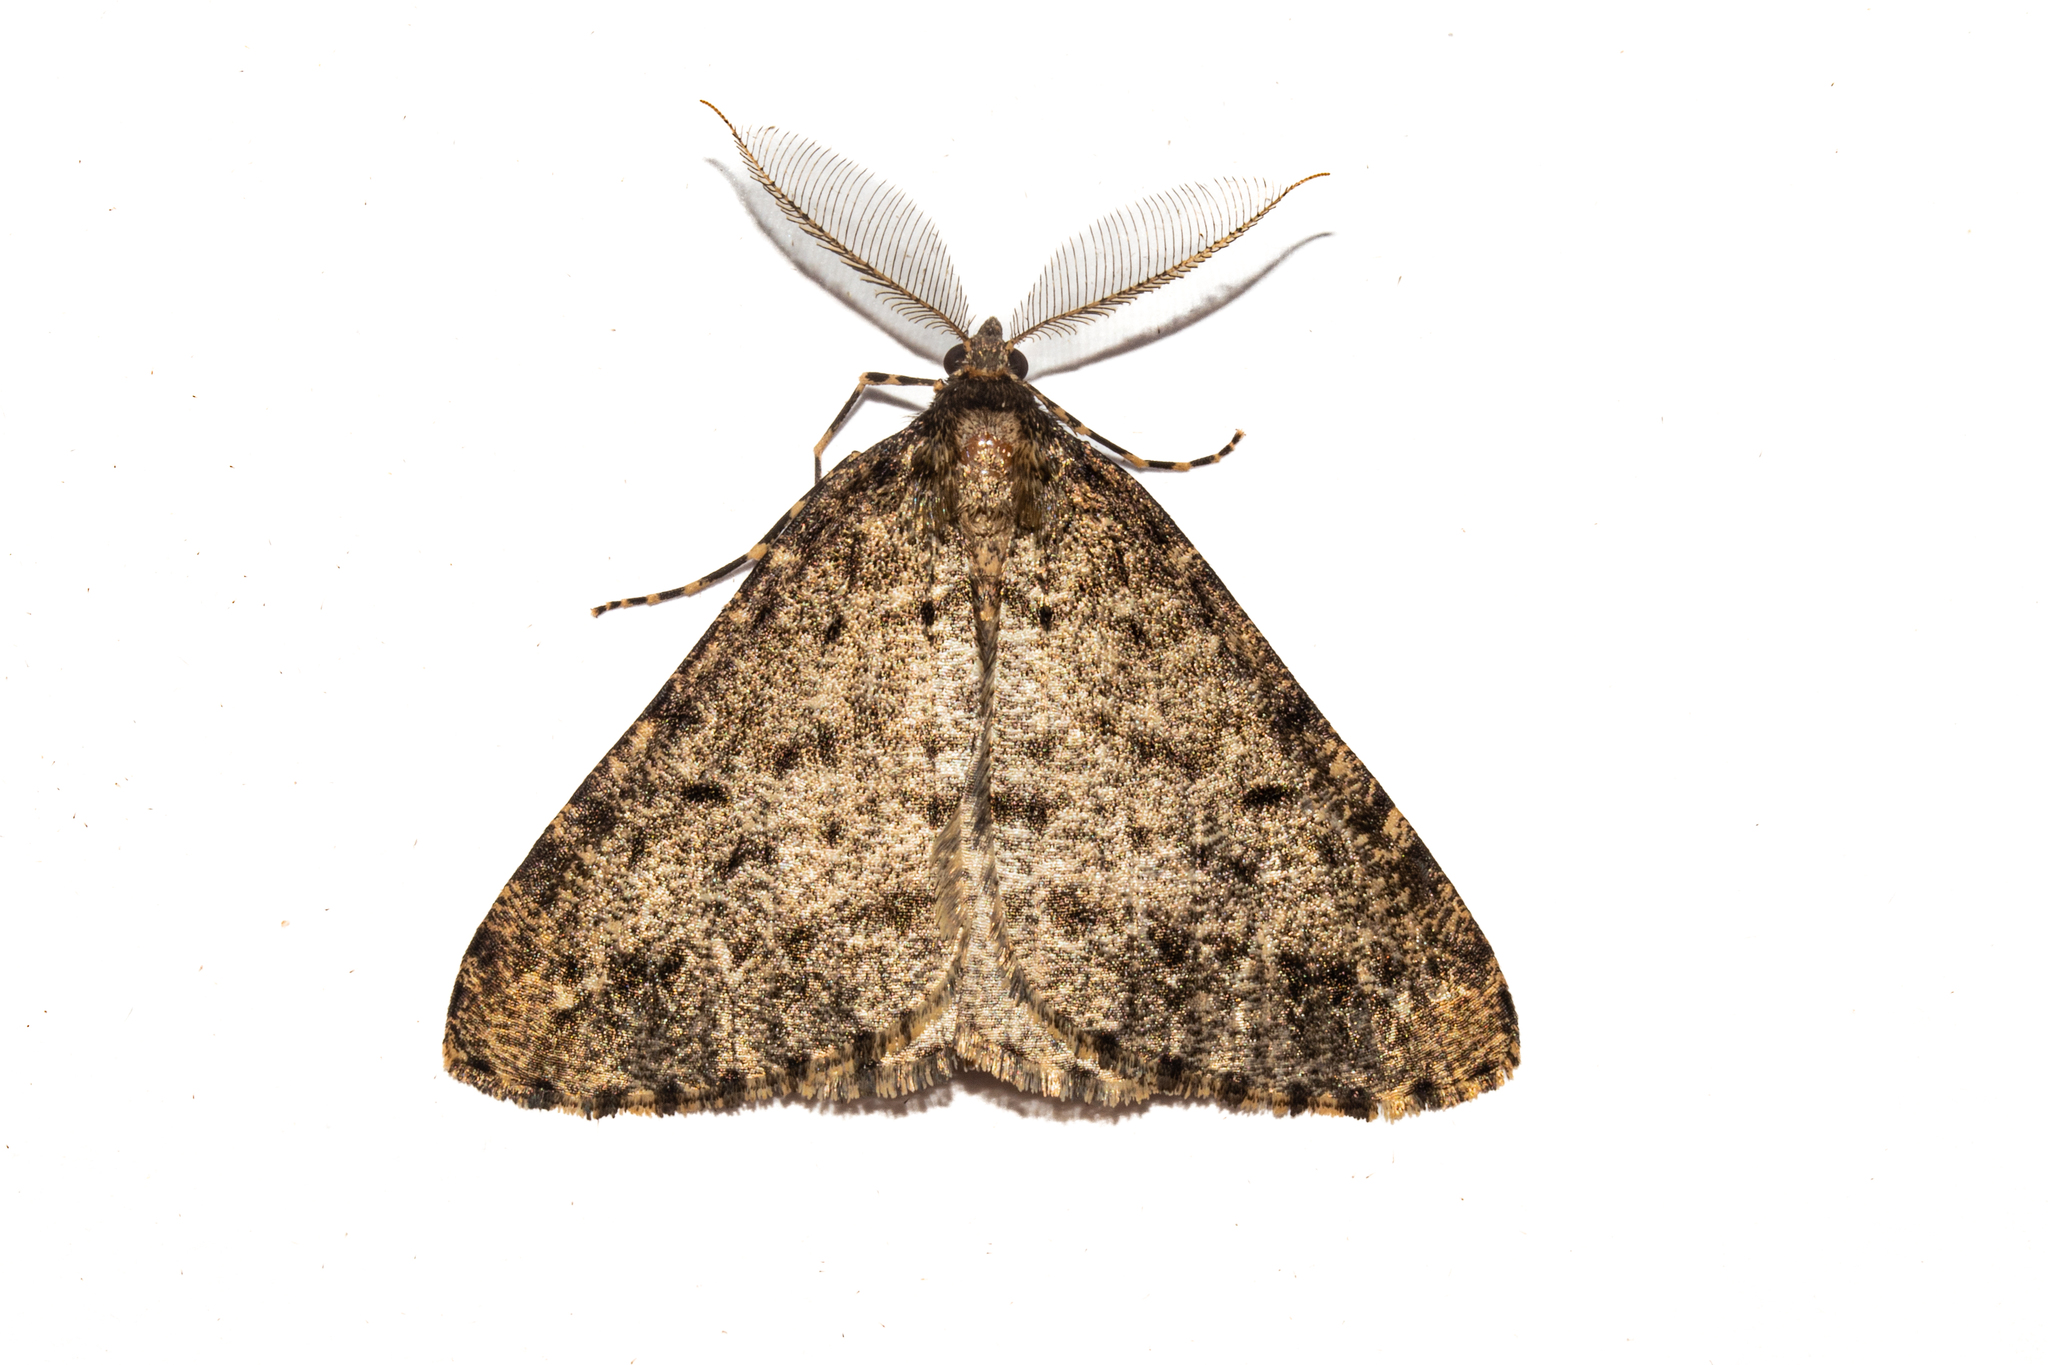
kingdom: Animalia
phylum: Arthropoda
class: Insecta
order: Lepidoptera
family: Geometridae
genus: Pseudocoremia
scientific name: Pseudocoremia terrena
